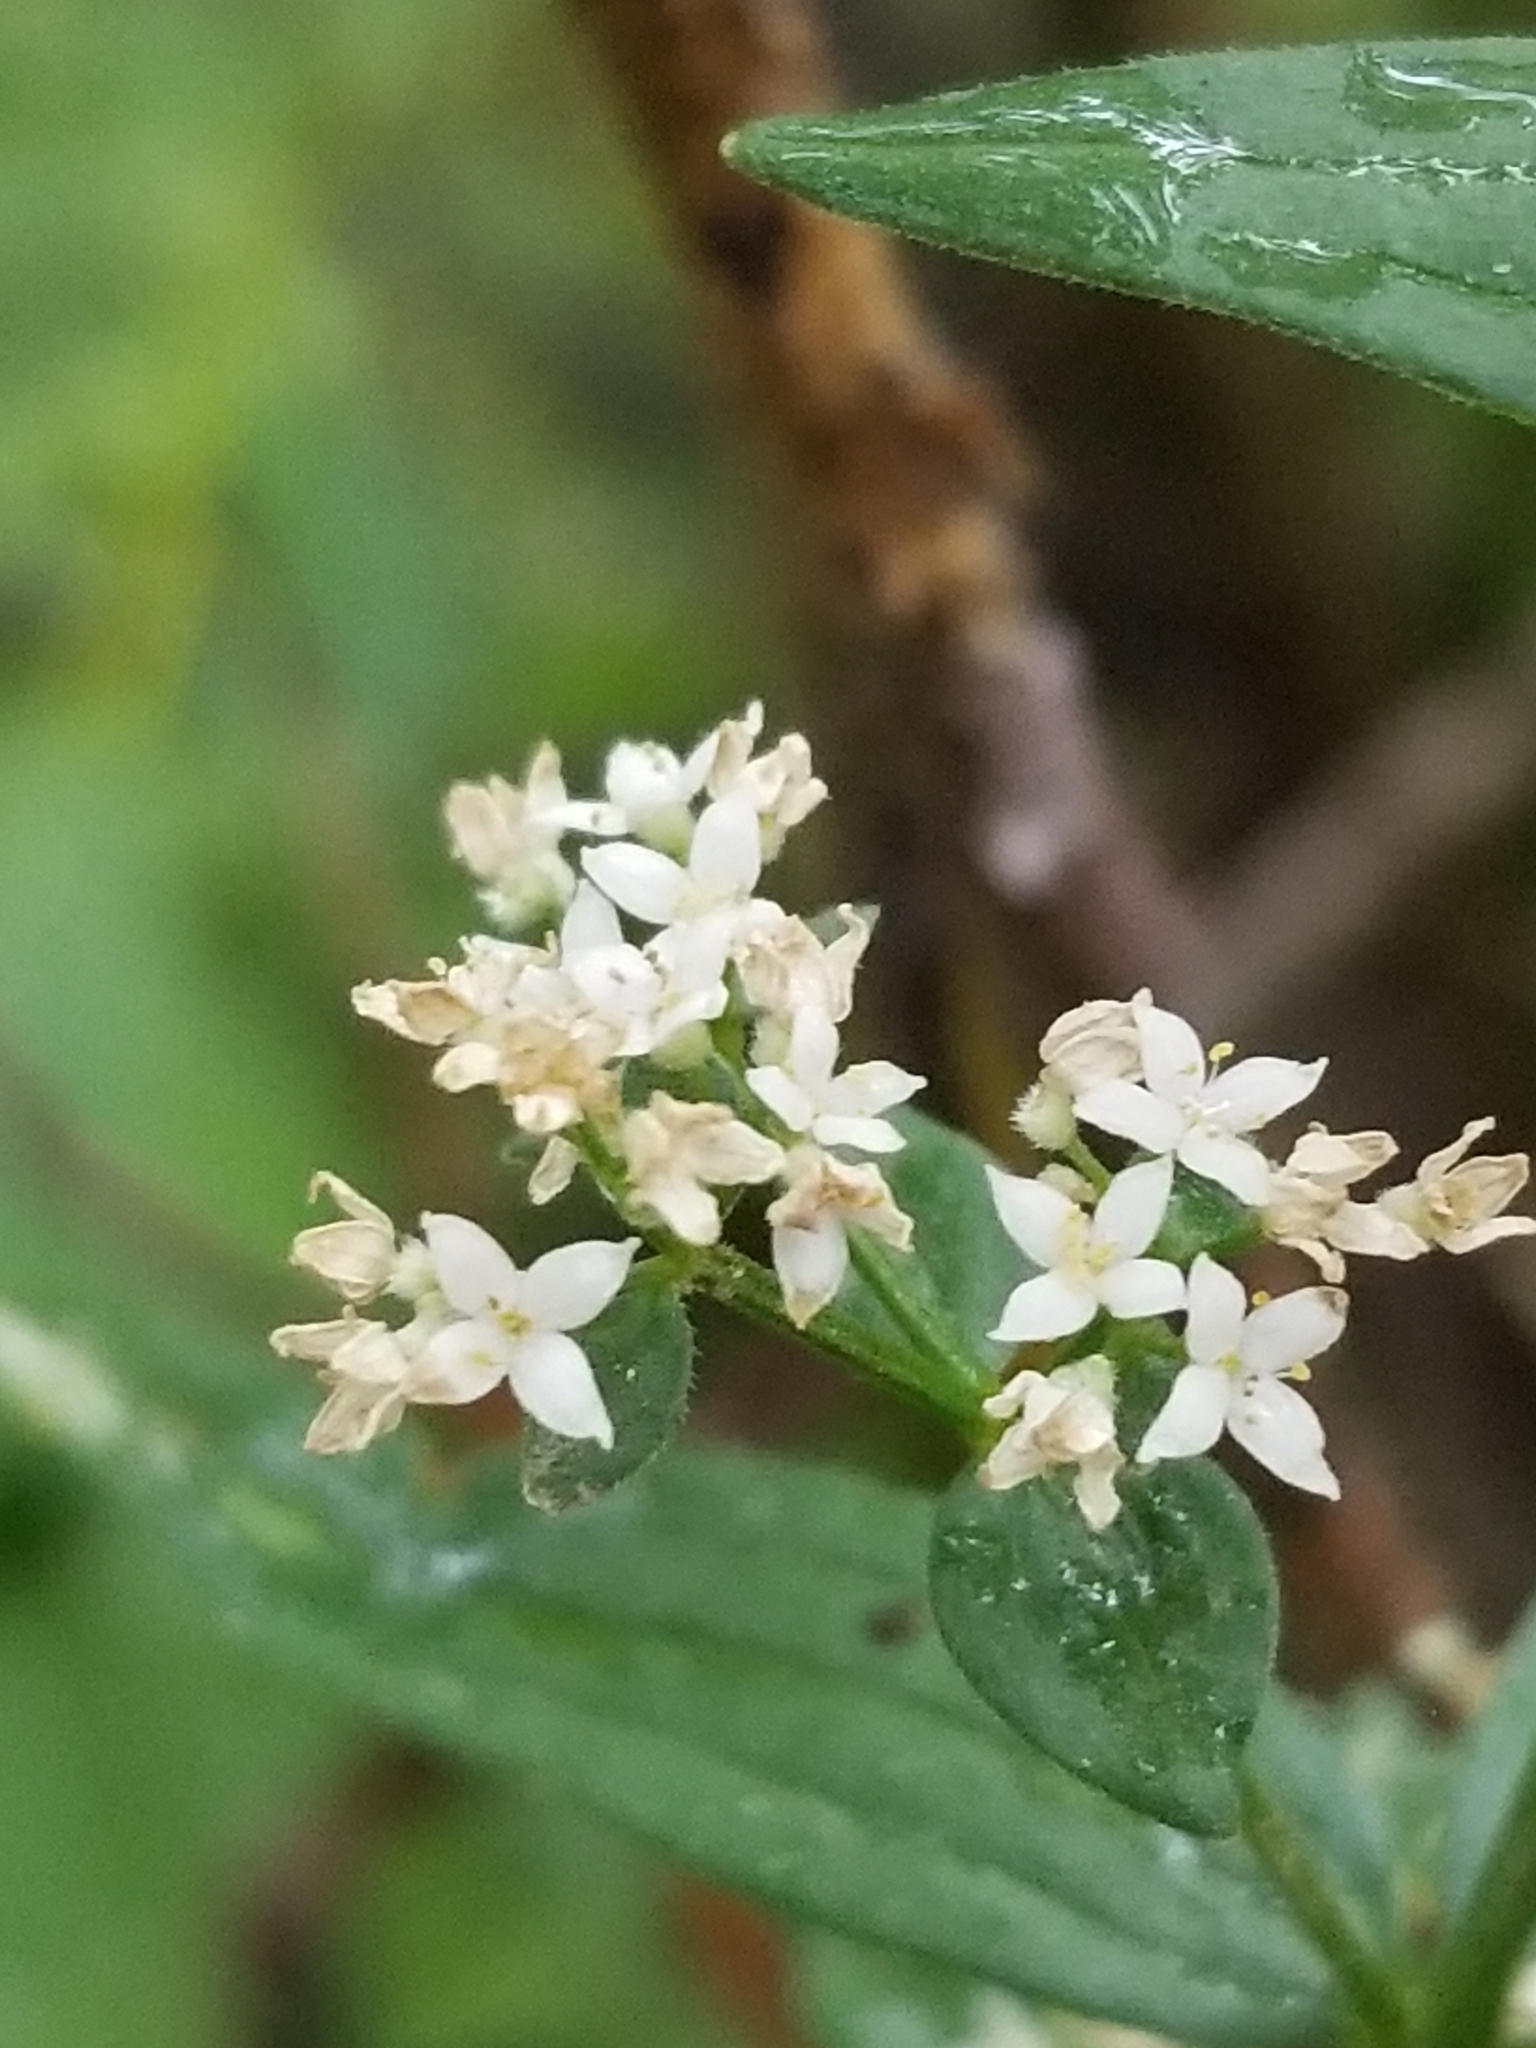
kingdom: Plantae
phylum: Tracheophyta
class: Magnoliopsida
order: Gentianales
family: Rubiaceae
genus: Galium
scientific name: Galium boreale
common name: Northern bedstraw
